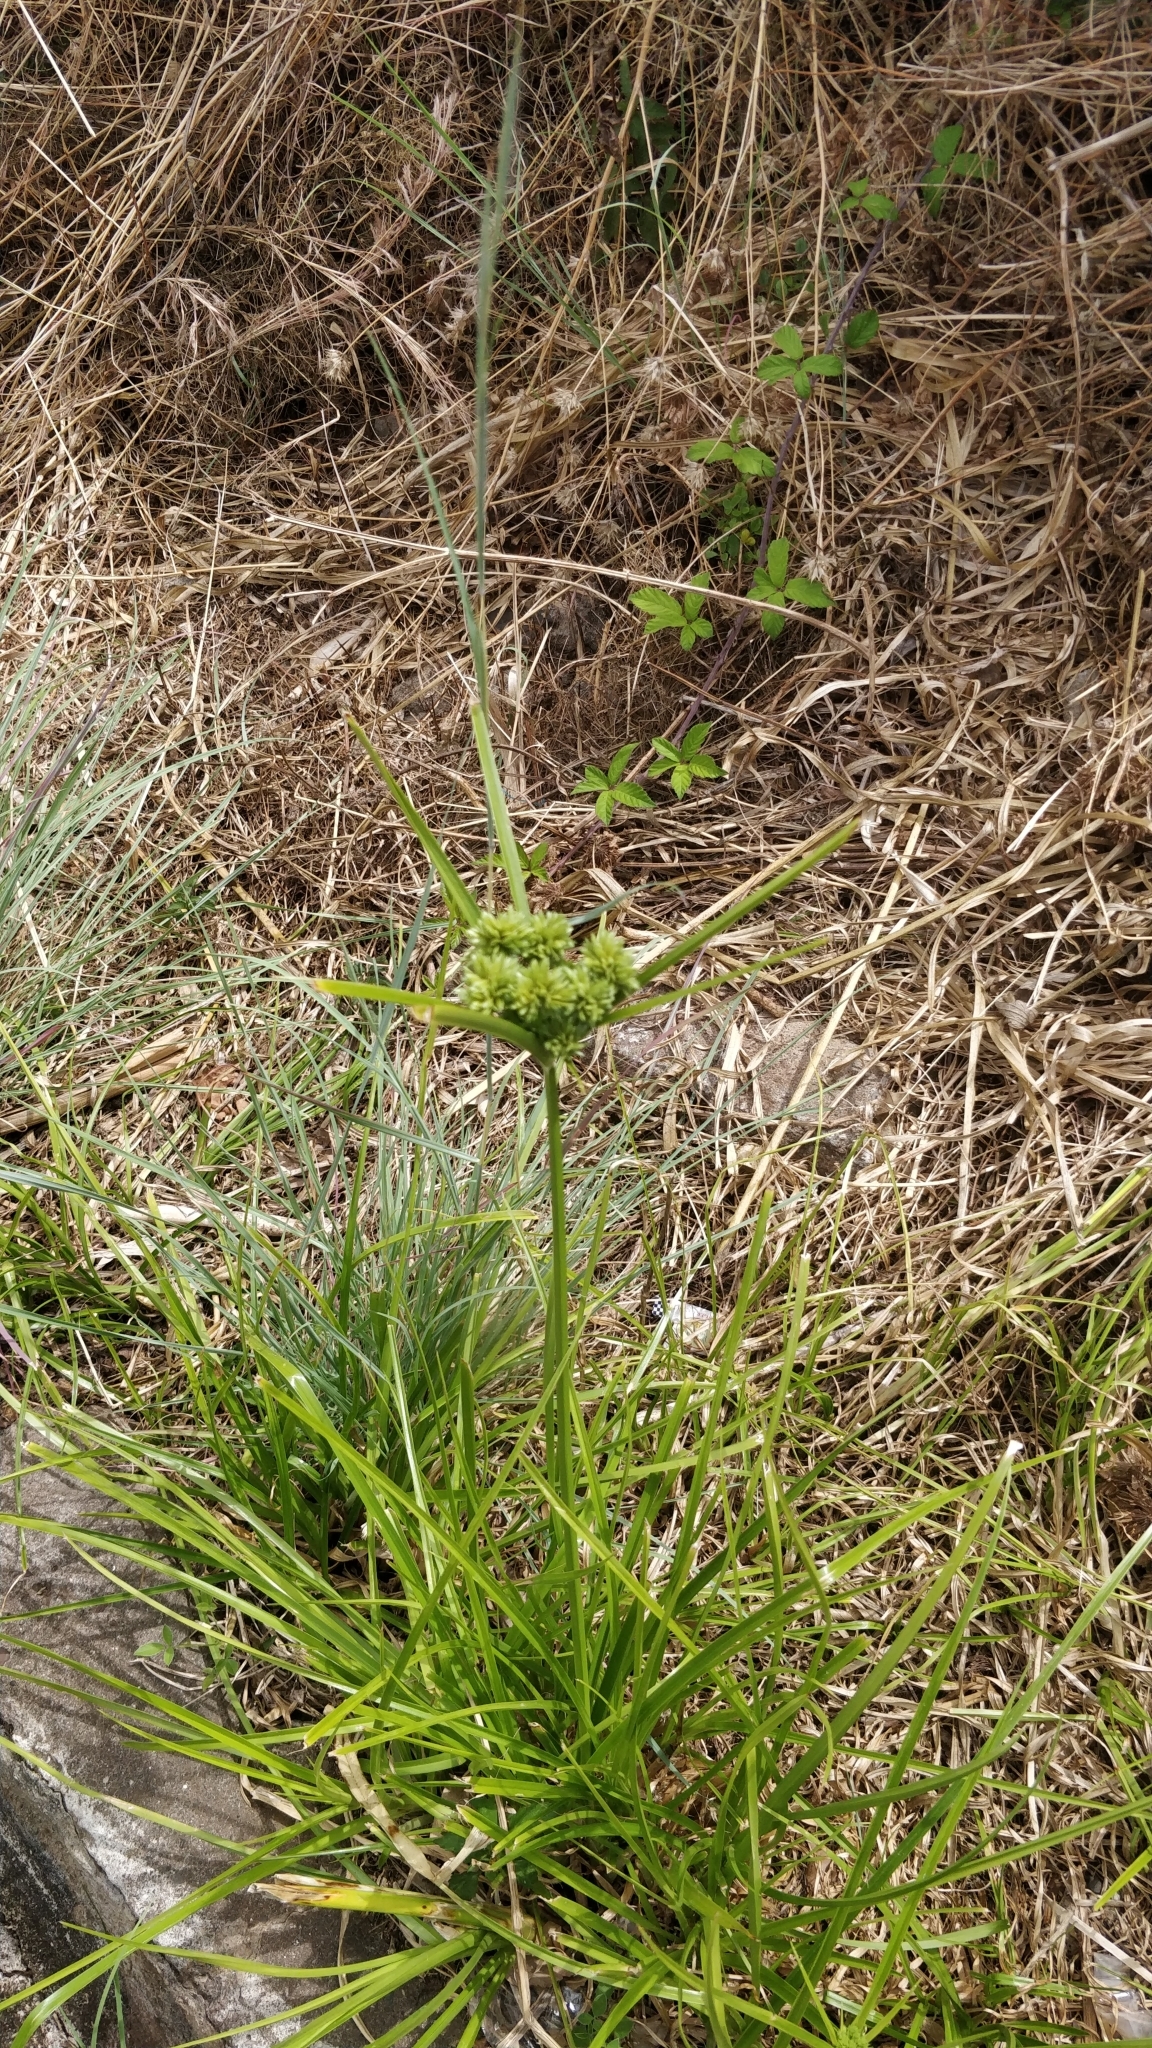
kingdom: Plantae
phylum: Tracheophyta
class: Liliopsida
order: Poales
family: Cyperaceae
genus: Cyperus
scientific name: Cyperus eragrostis
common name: Tall flatsedge
